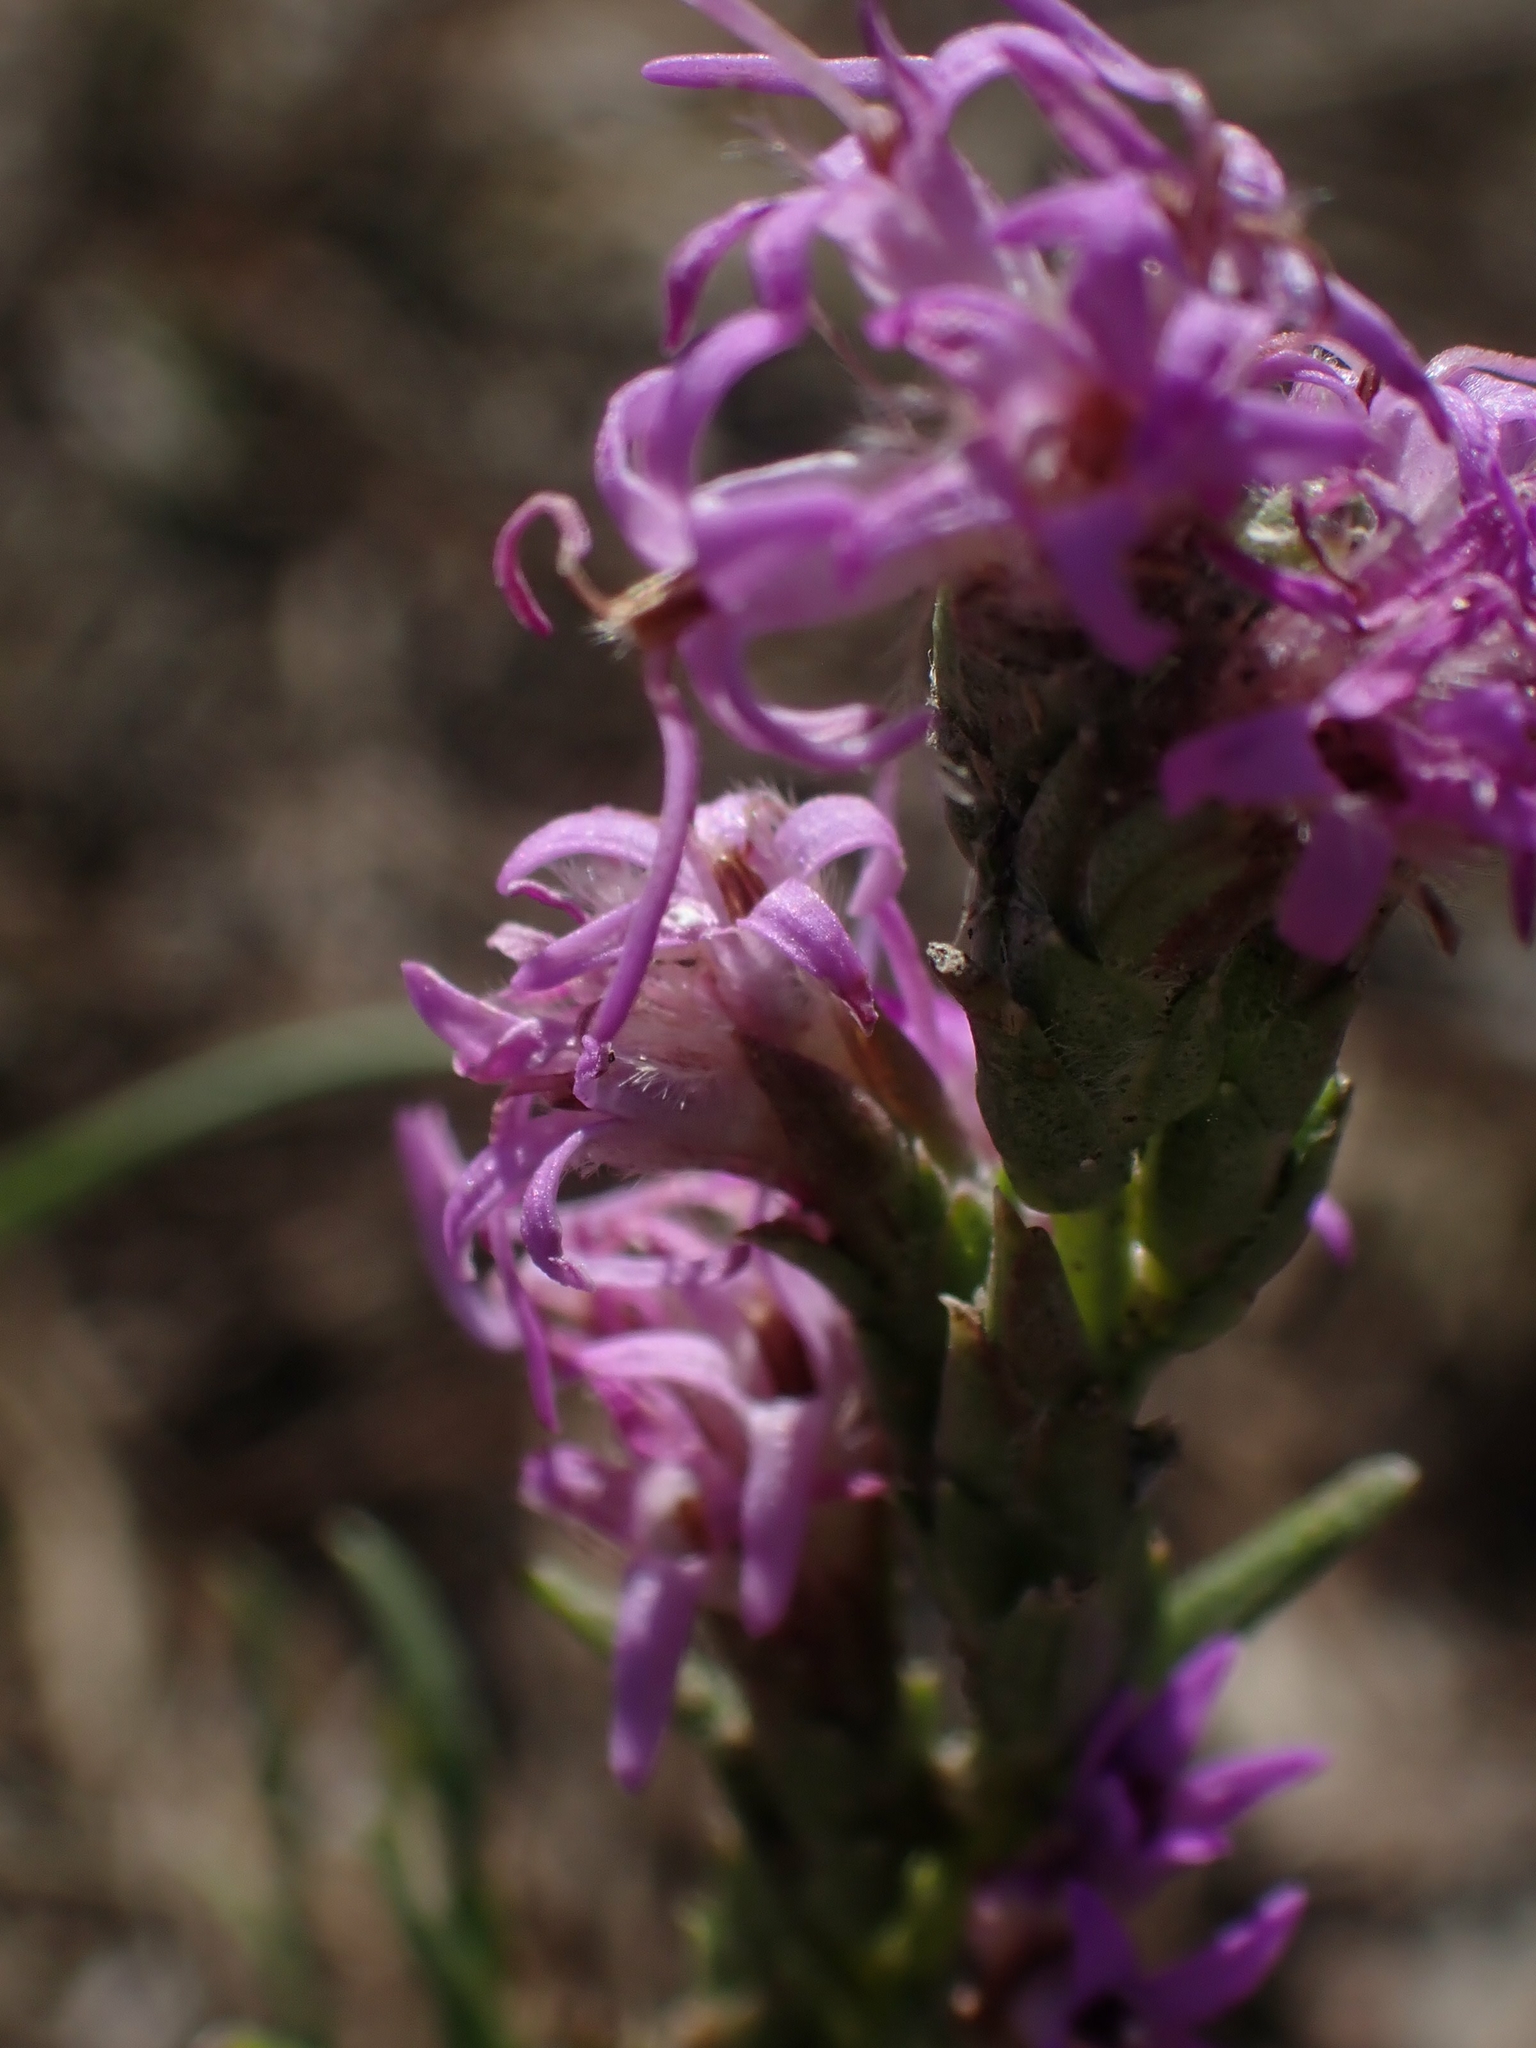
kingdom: Plantae
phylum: Tracheophyta
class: Magnoliopsida
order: Asterales
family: Asteraceae
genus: Liatris
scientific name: Liatris punctata
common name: Dotted gayfeather
